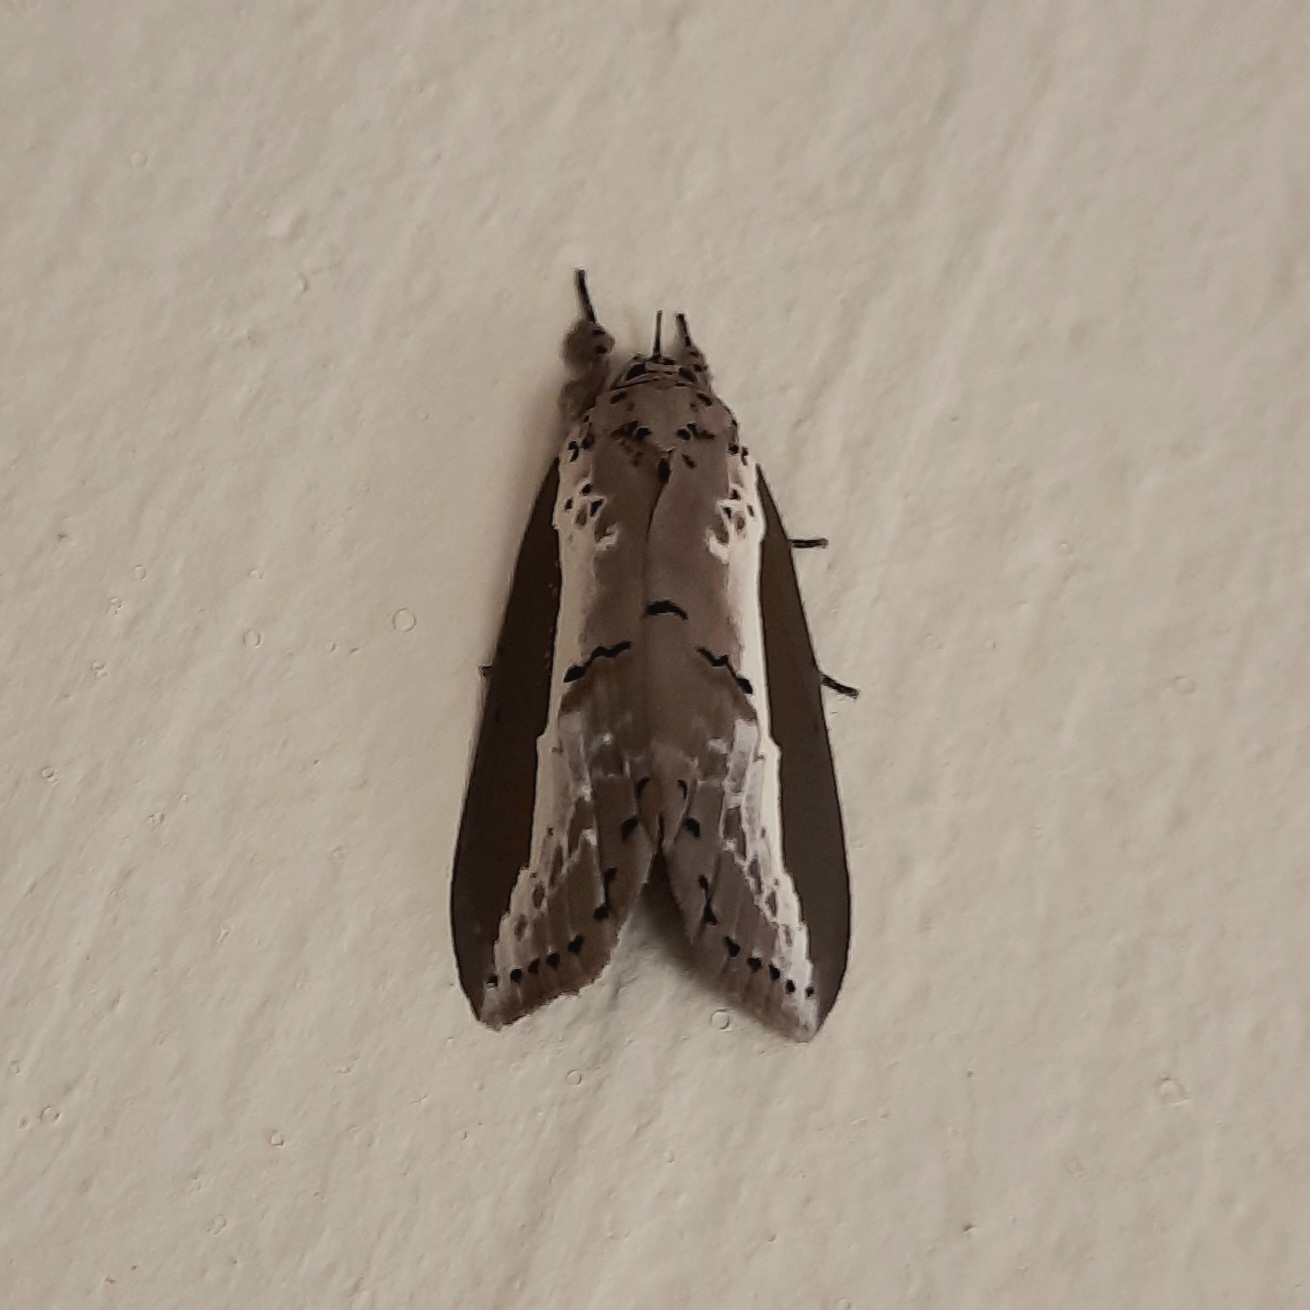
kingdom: Animalia
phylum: Arthropoda
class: Insecta
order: Lepidoptera
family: Nolidae
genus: Eligma
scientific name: Eligma narcissus
